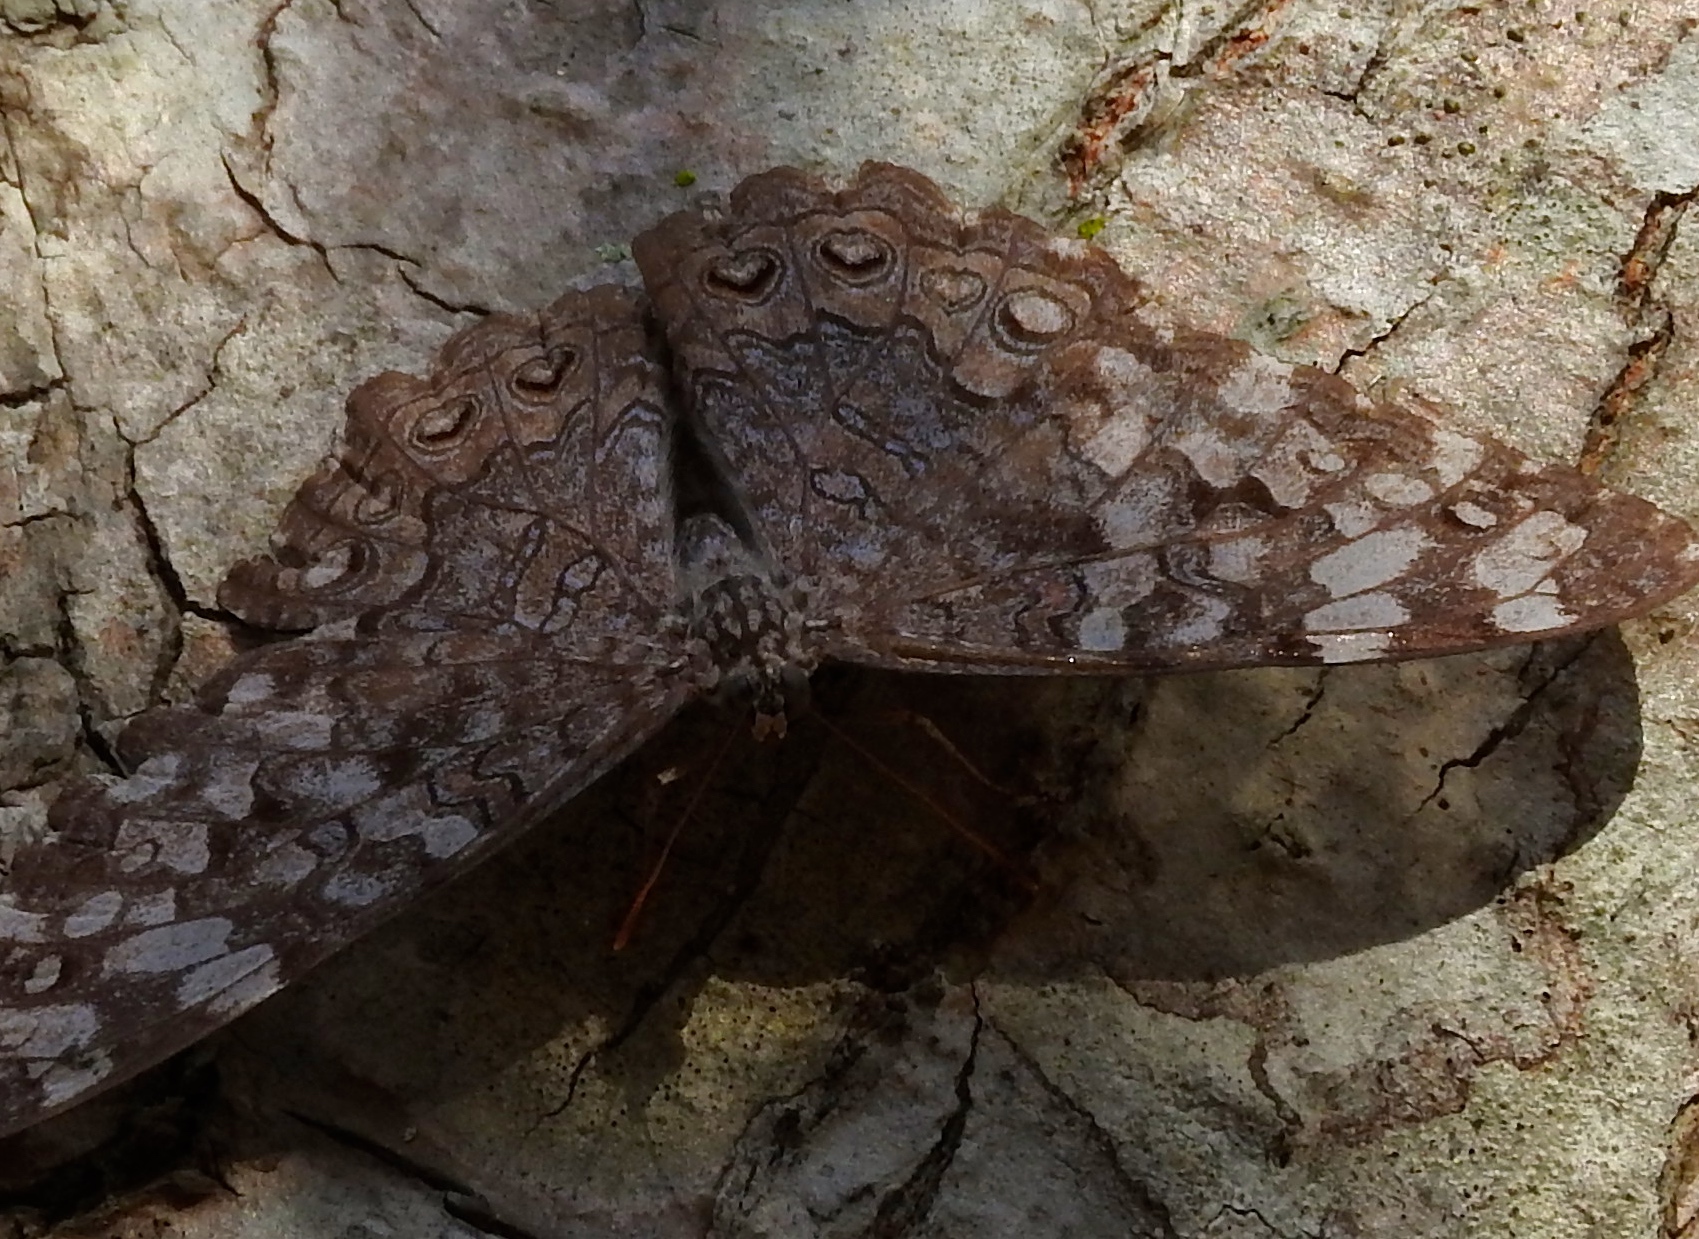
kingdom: Animalia
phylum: Arthropoda
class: Insecta
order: Lepidoptera
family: Nymphalidae
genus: Hamadryas
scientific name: Hamadryas februa
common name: Gray cracker
